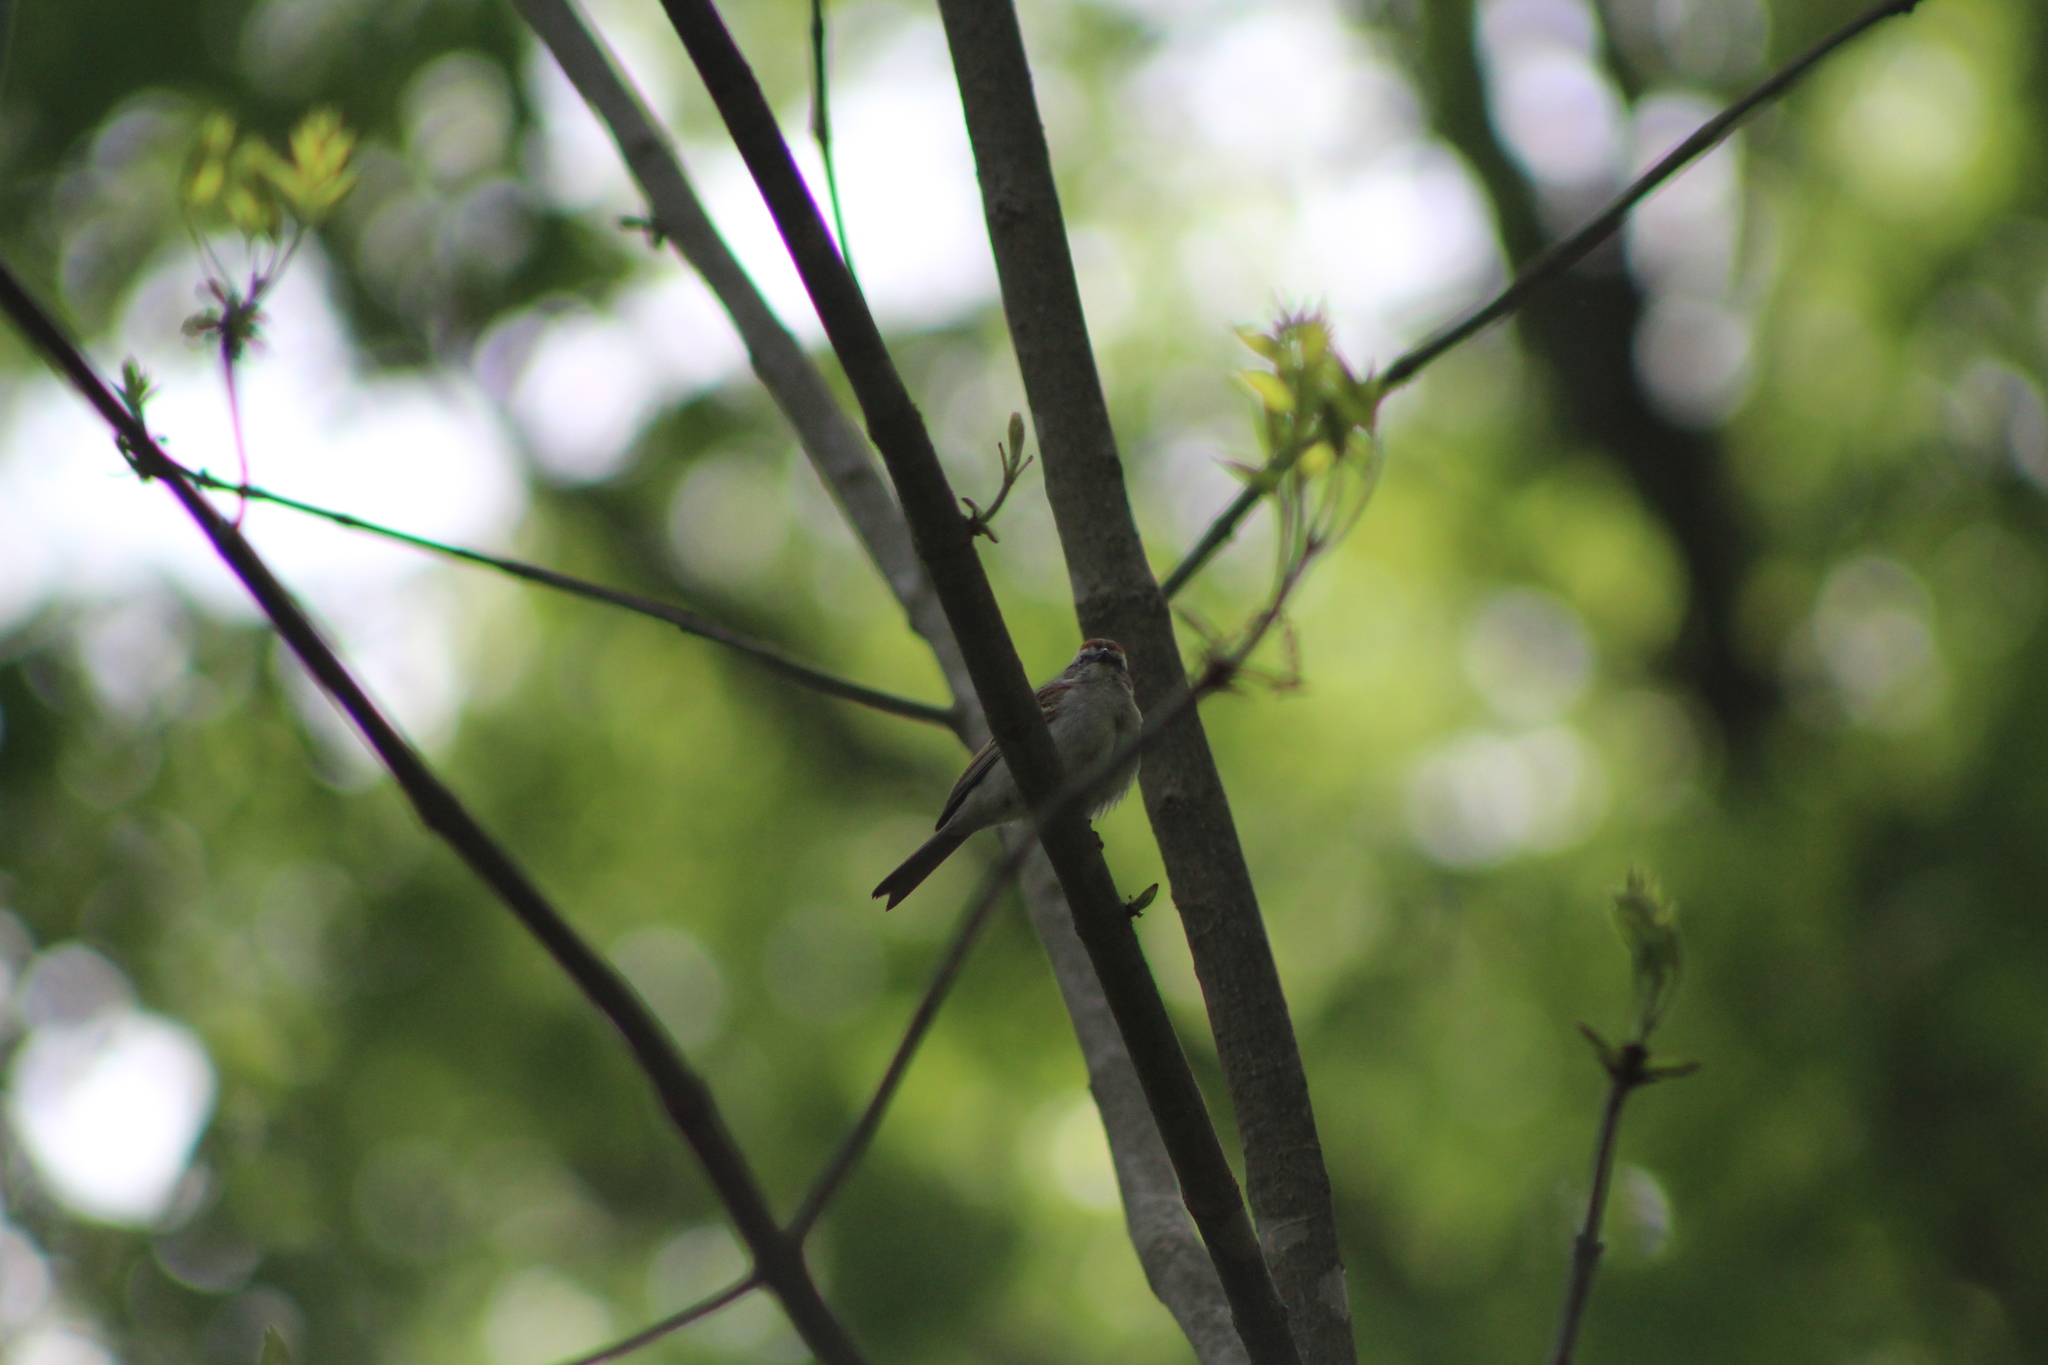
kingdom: Animalia
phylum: Chordata
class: Aves
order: Passeriformes
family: Passerellidae
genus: Spizella
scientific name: Spizella passerina
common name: Chipping sparrow
